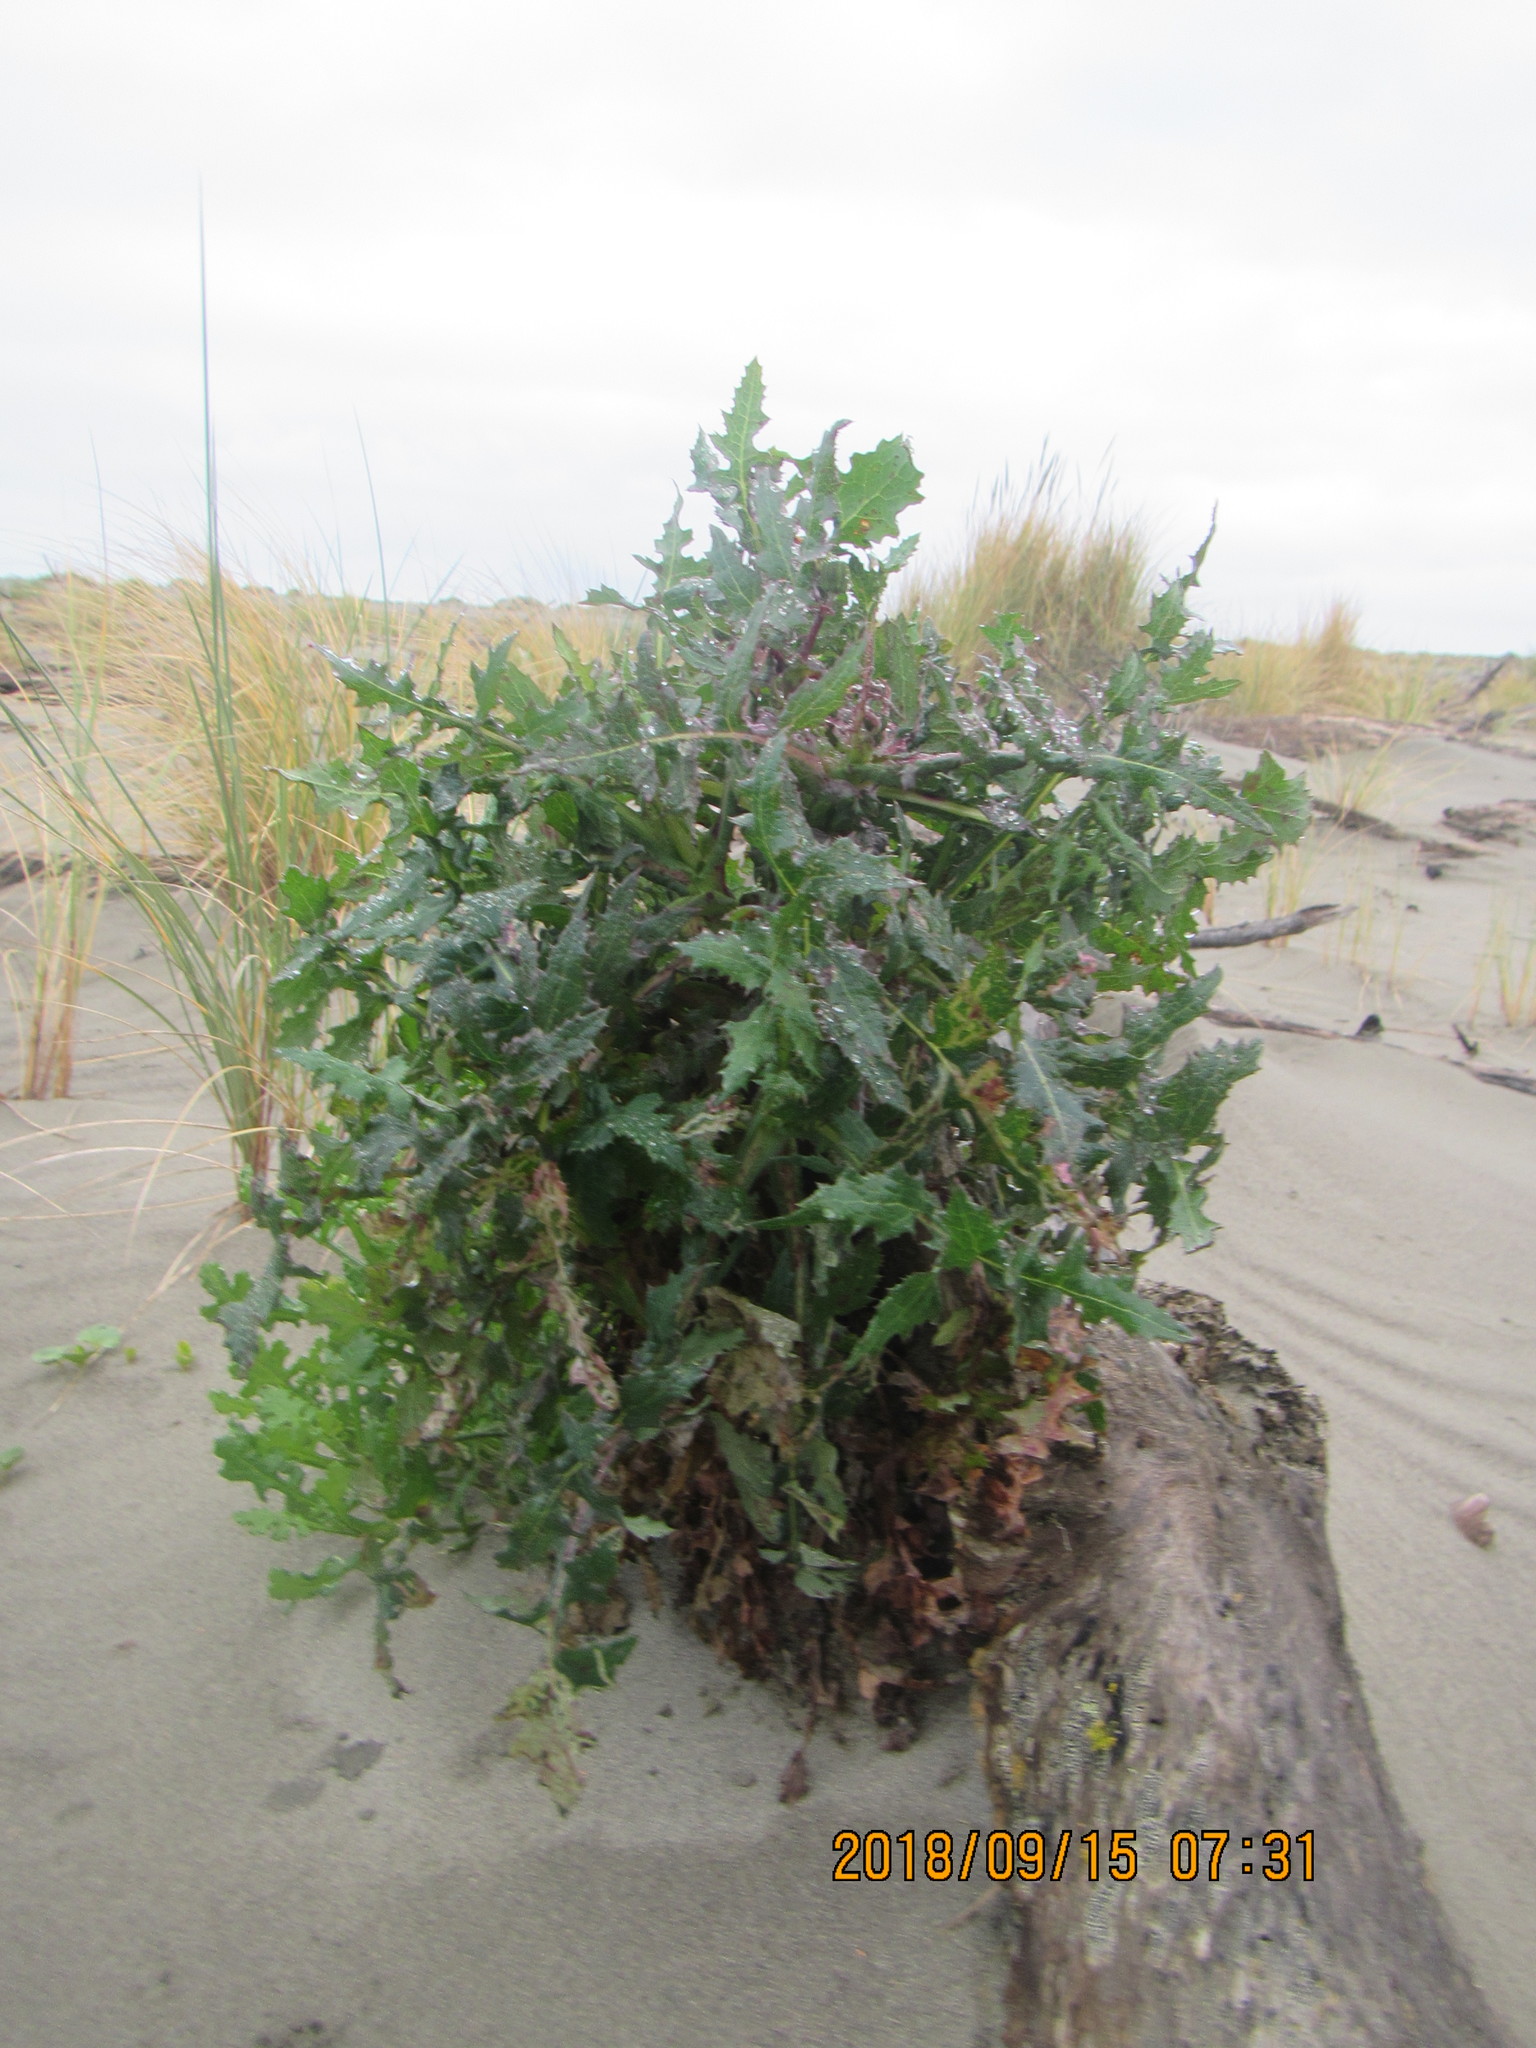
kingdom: Plantae
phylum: Tracheophyta
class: Magnoliopsida
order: Asterales
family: Asteraceae
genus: Sonchus
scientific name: Sonchus oleraceus
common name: Common sowthistle
